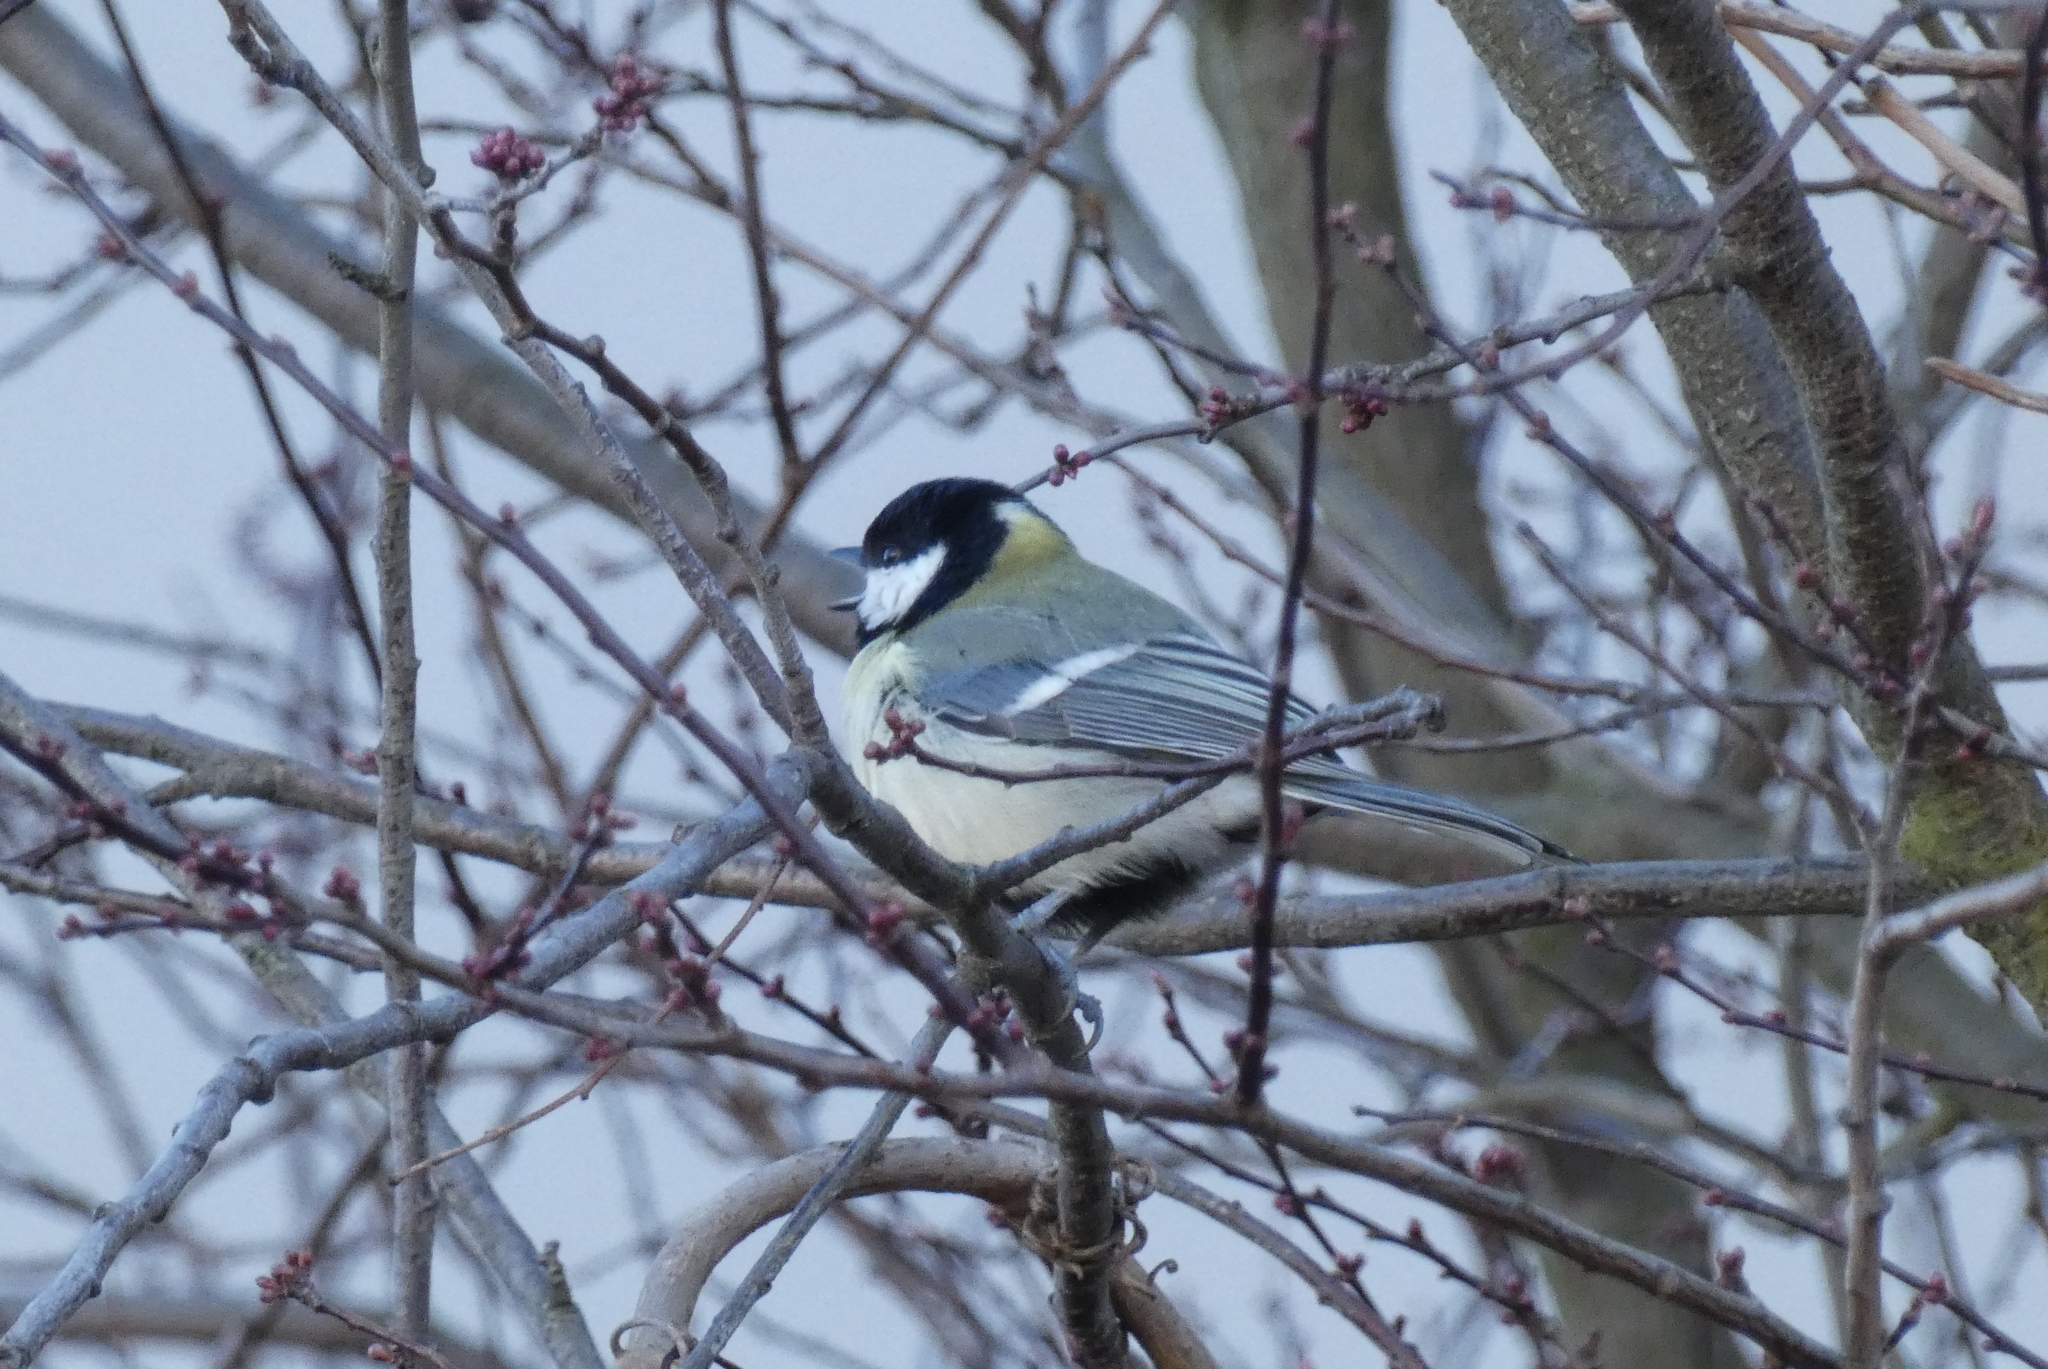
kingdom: Animalia
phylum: Chordata
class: Aves
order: Passeriformes
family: Paridae
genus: Parus
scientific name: Parus major
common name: Great tit
